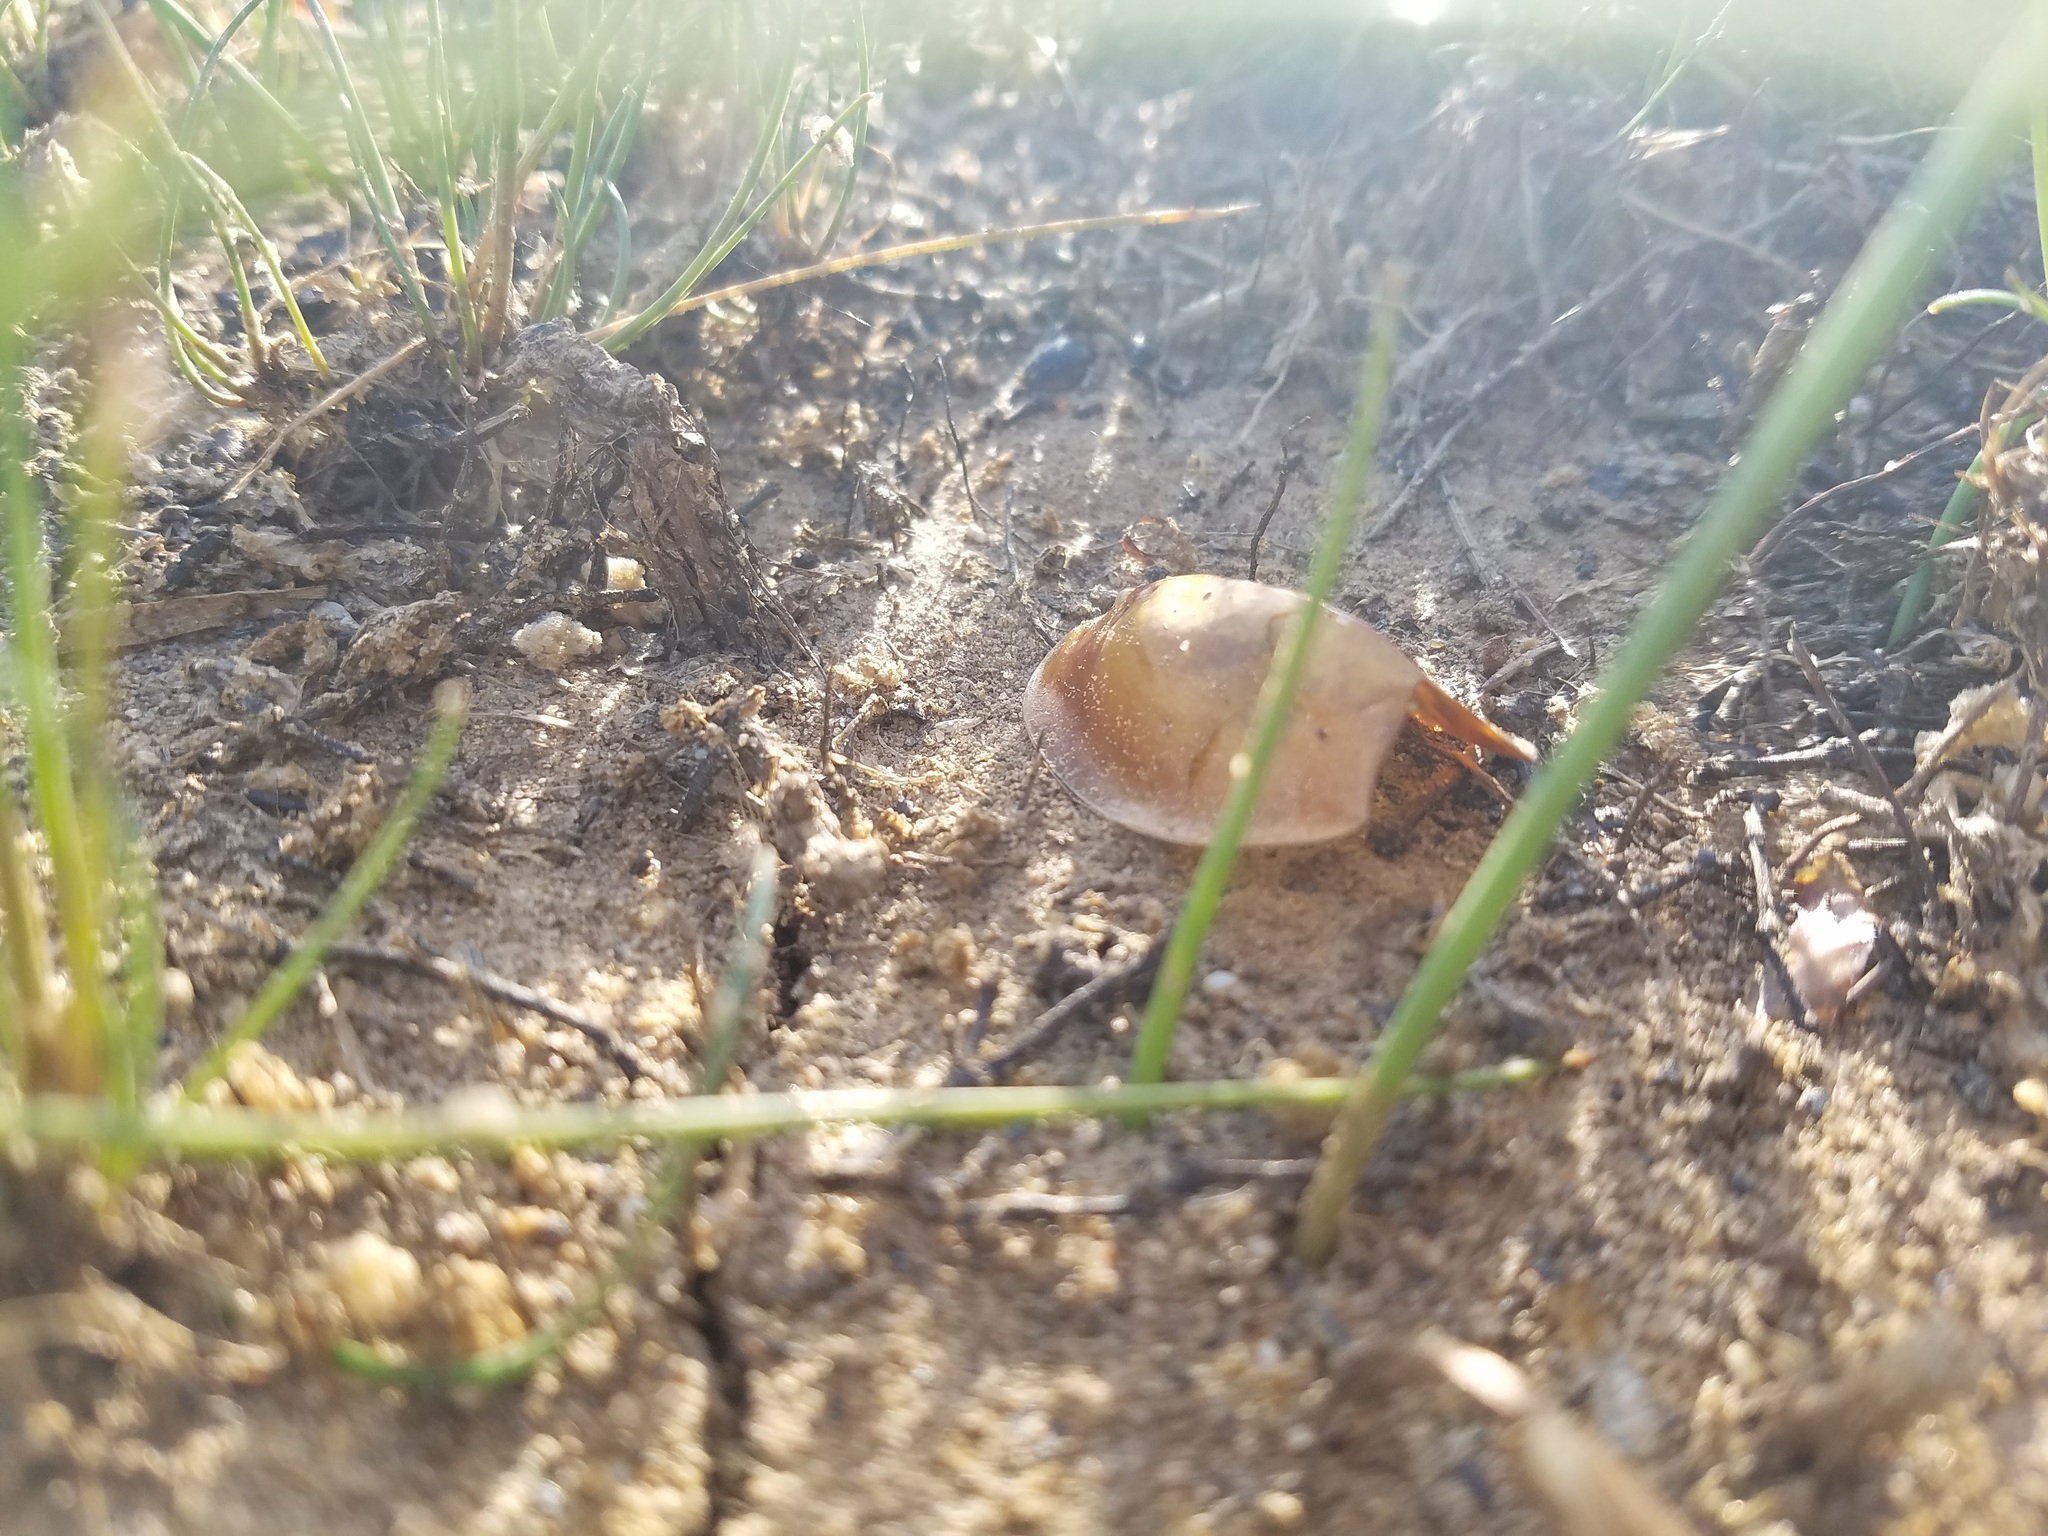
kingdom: Animalia
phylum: Arthropoda
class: Branchiopoda
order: Notostraca
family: Triopsidae
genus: Lepidurus
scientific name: Lepidurus packardi
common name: Vernal pool tadpole shrimp
